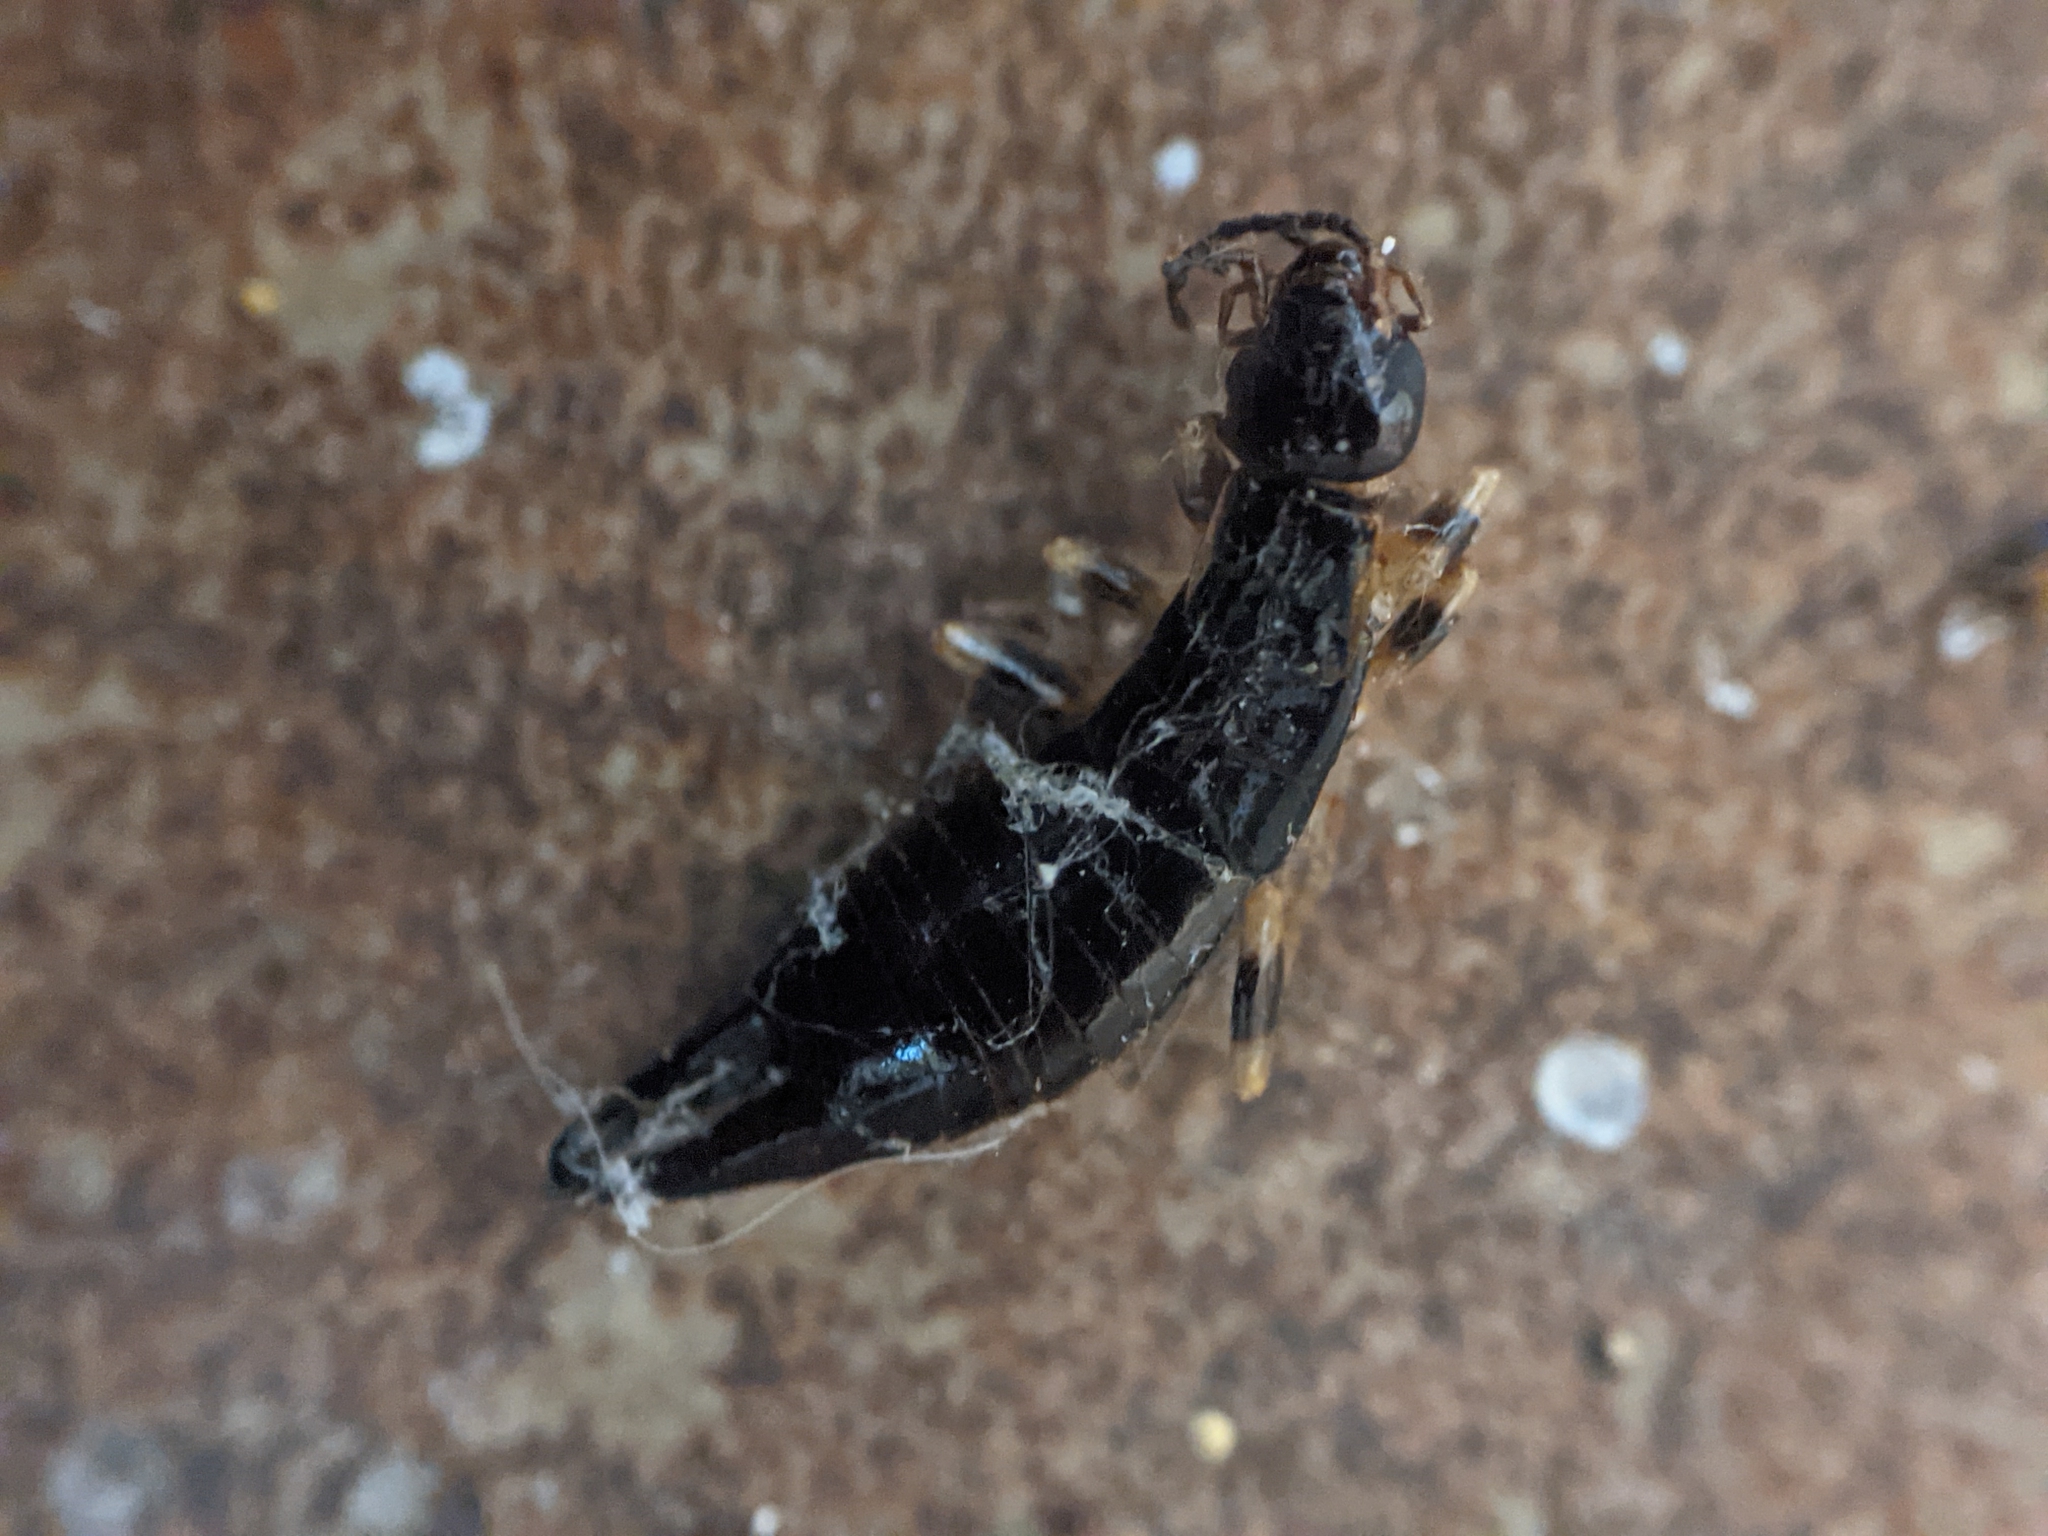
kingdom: Animalia
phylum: Arthropoda
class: Insecta
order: Dermaptera
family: Anisolabididae
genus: Euborellia
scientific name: Euborellia annulipes
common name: Ringlegged earwig
